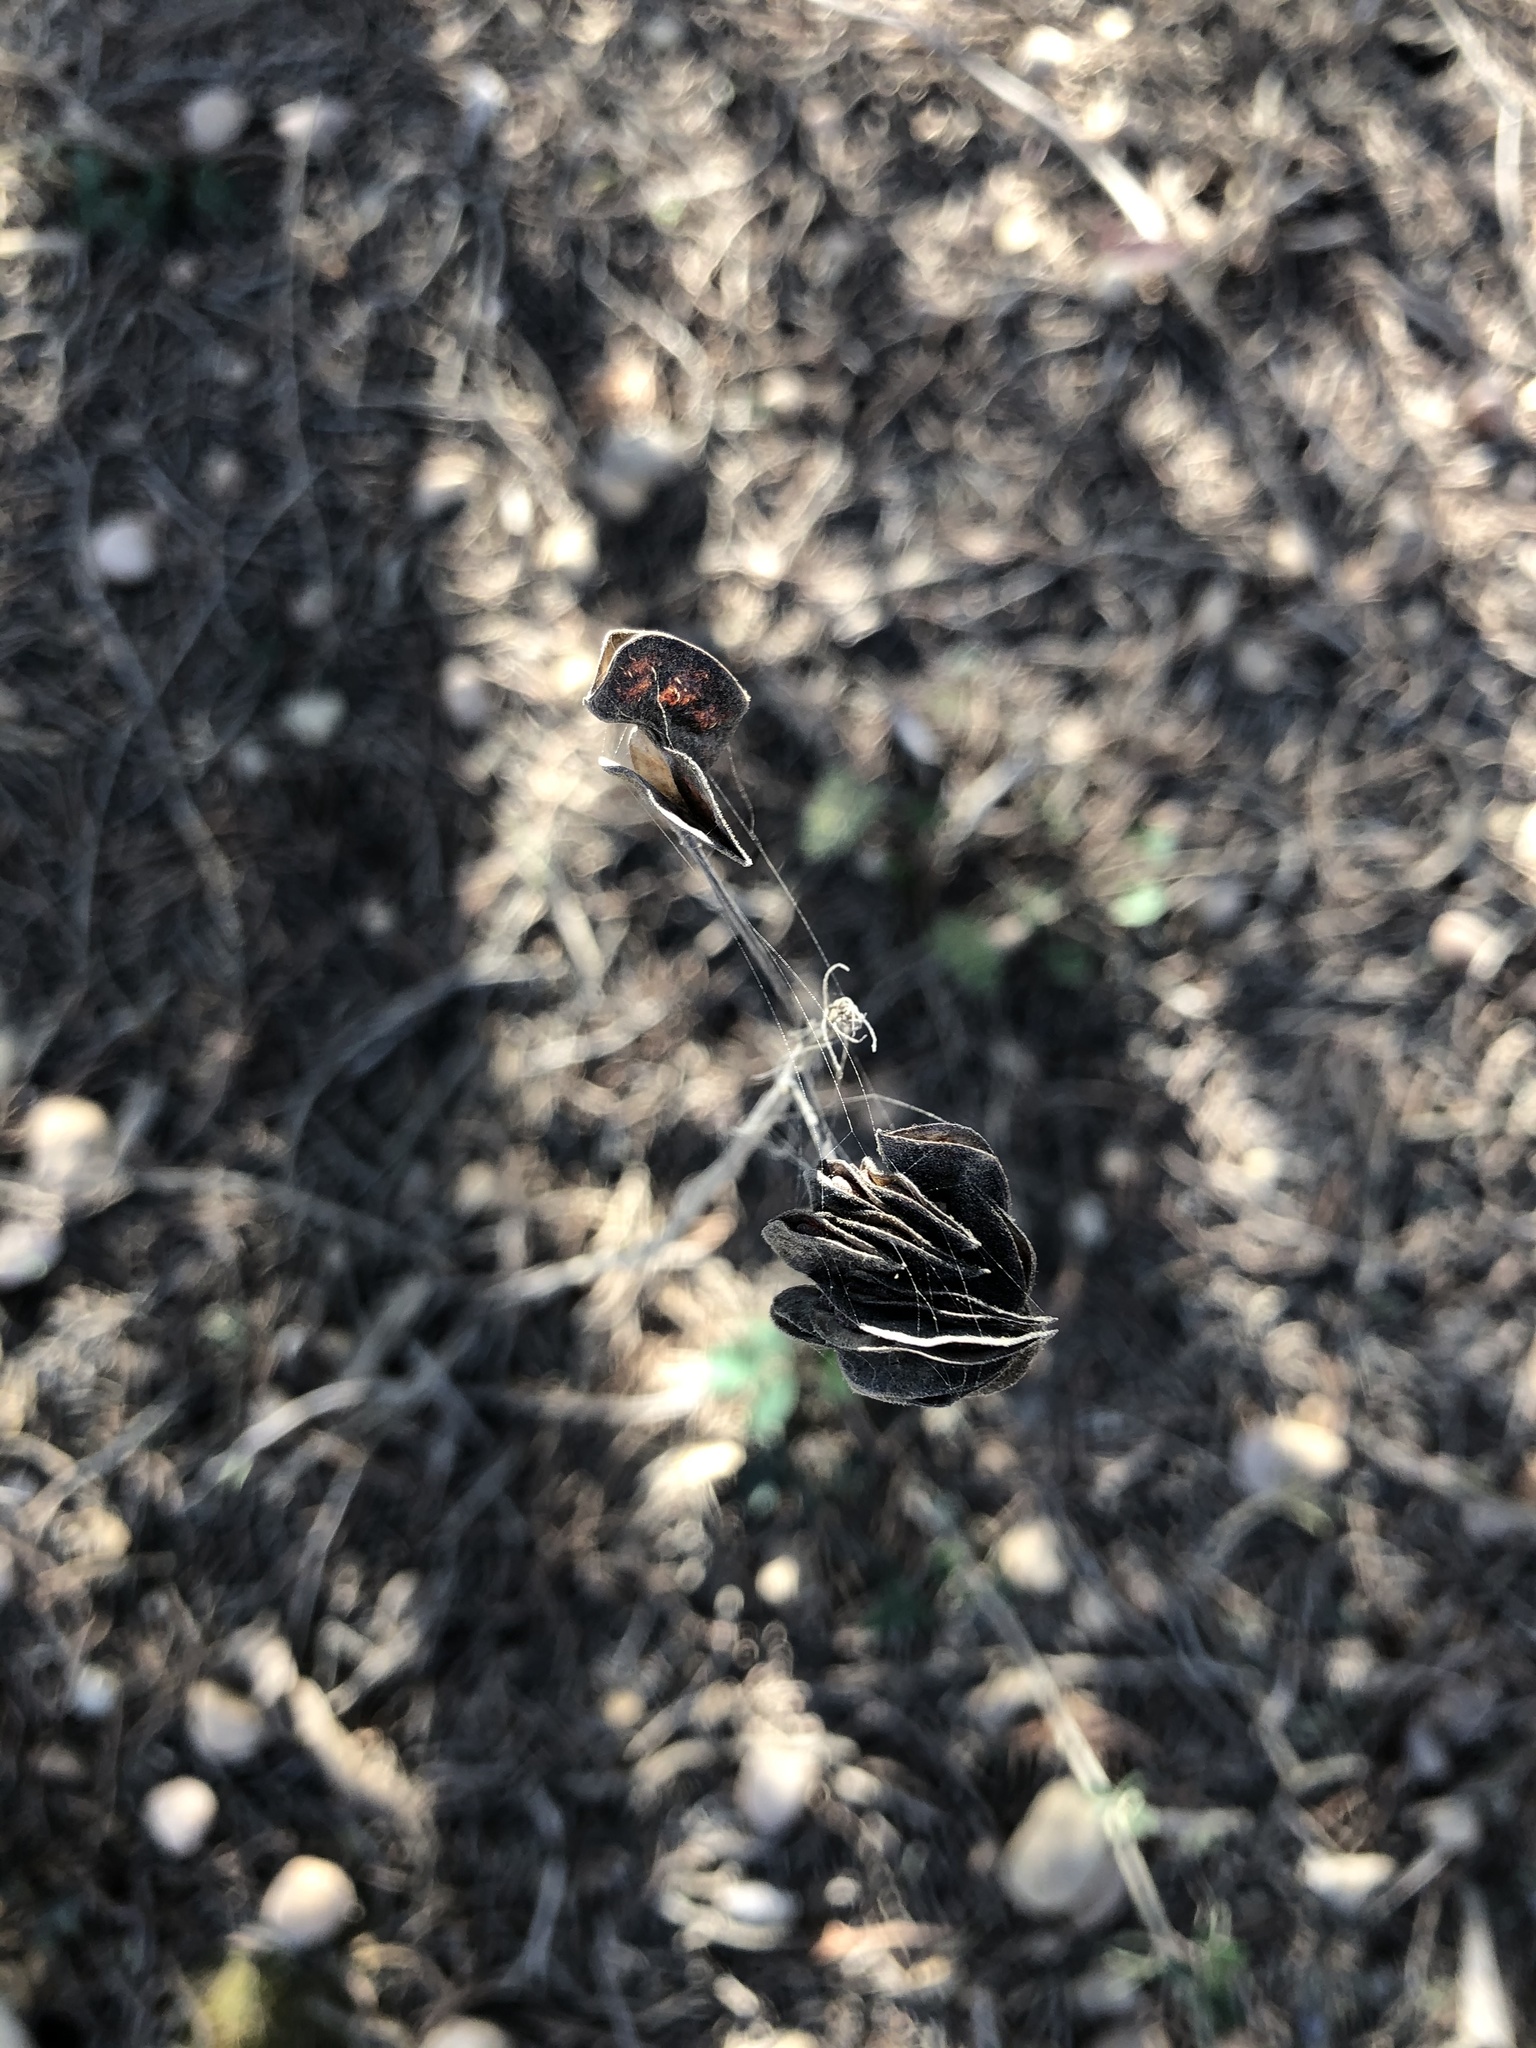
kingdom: Plantae
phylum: Tracheophyta
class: Magnoliopsida
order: Fabales
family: Fabaceae
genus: Desmanthus
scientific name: Desmanthus illinoensis
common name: Illinois bundle-flower
